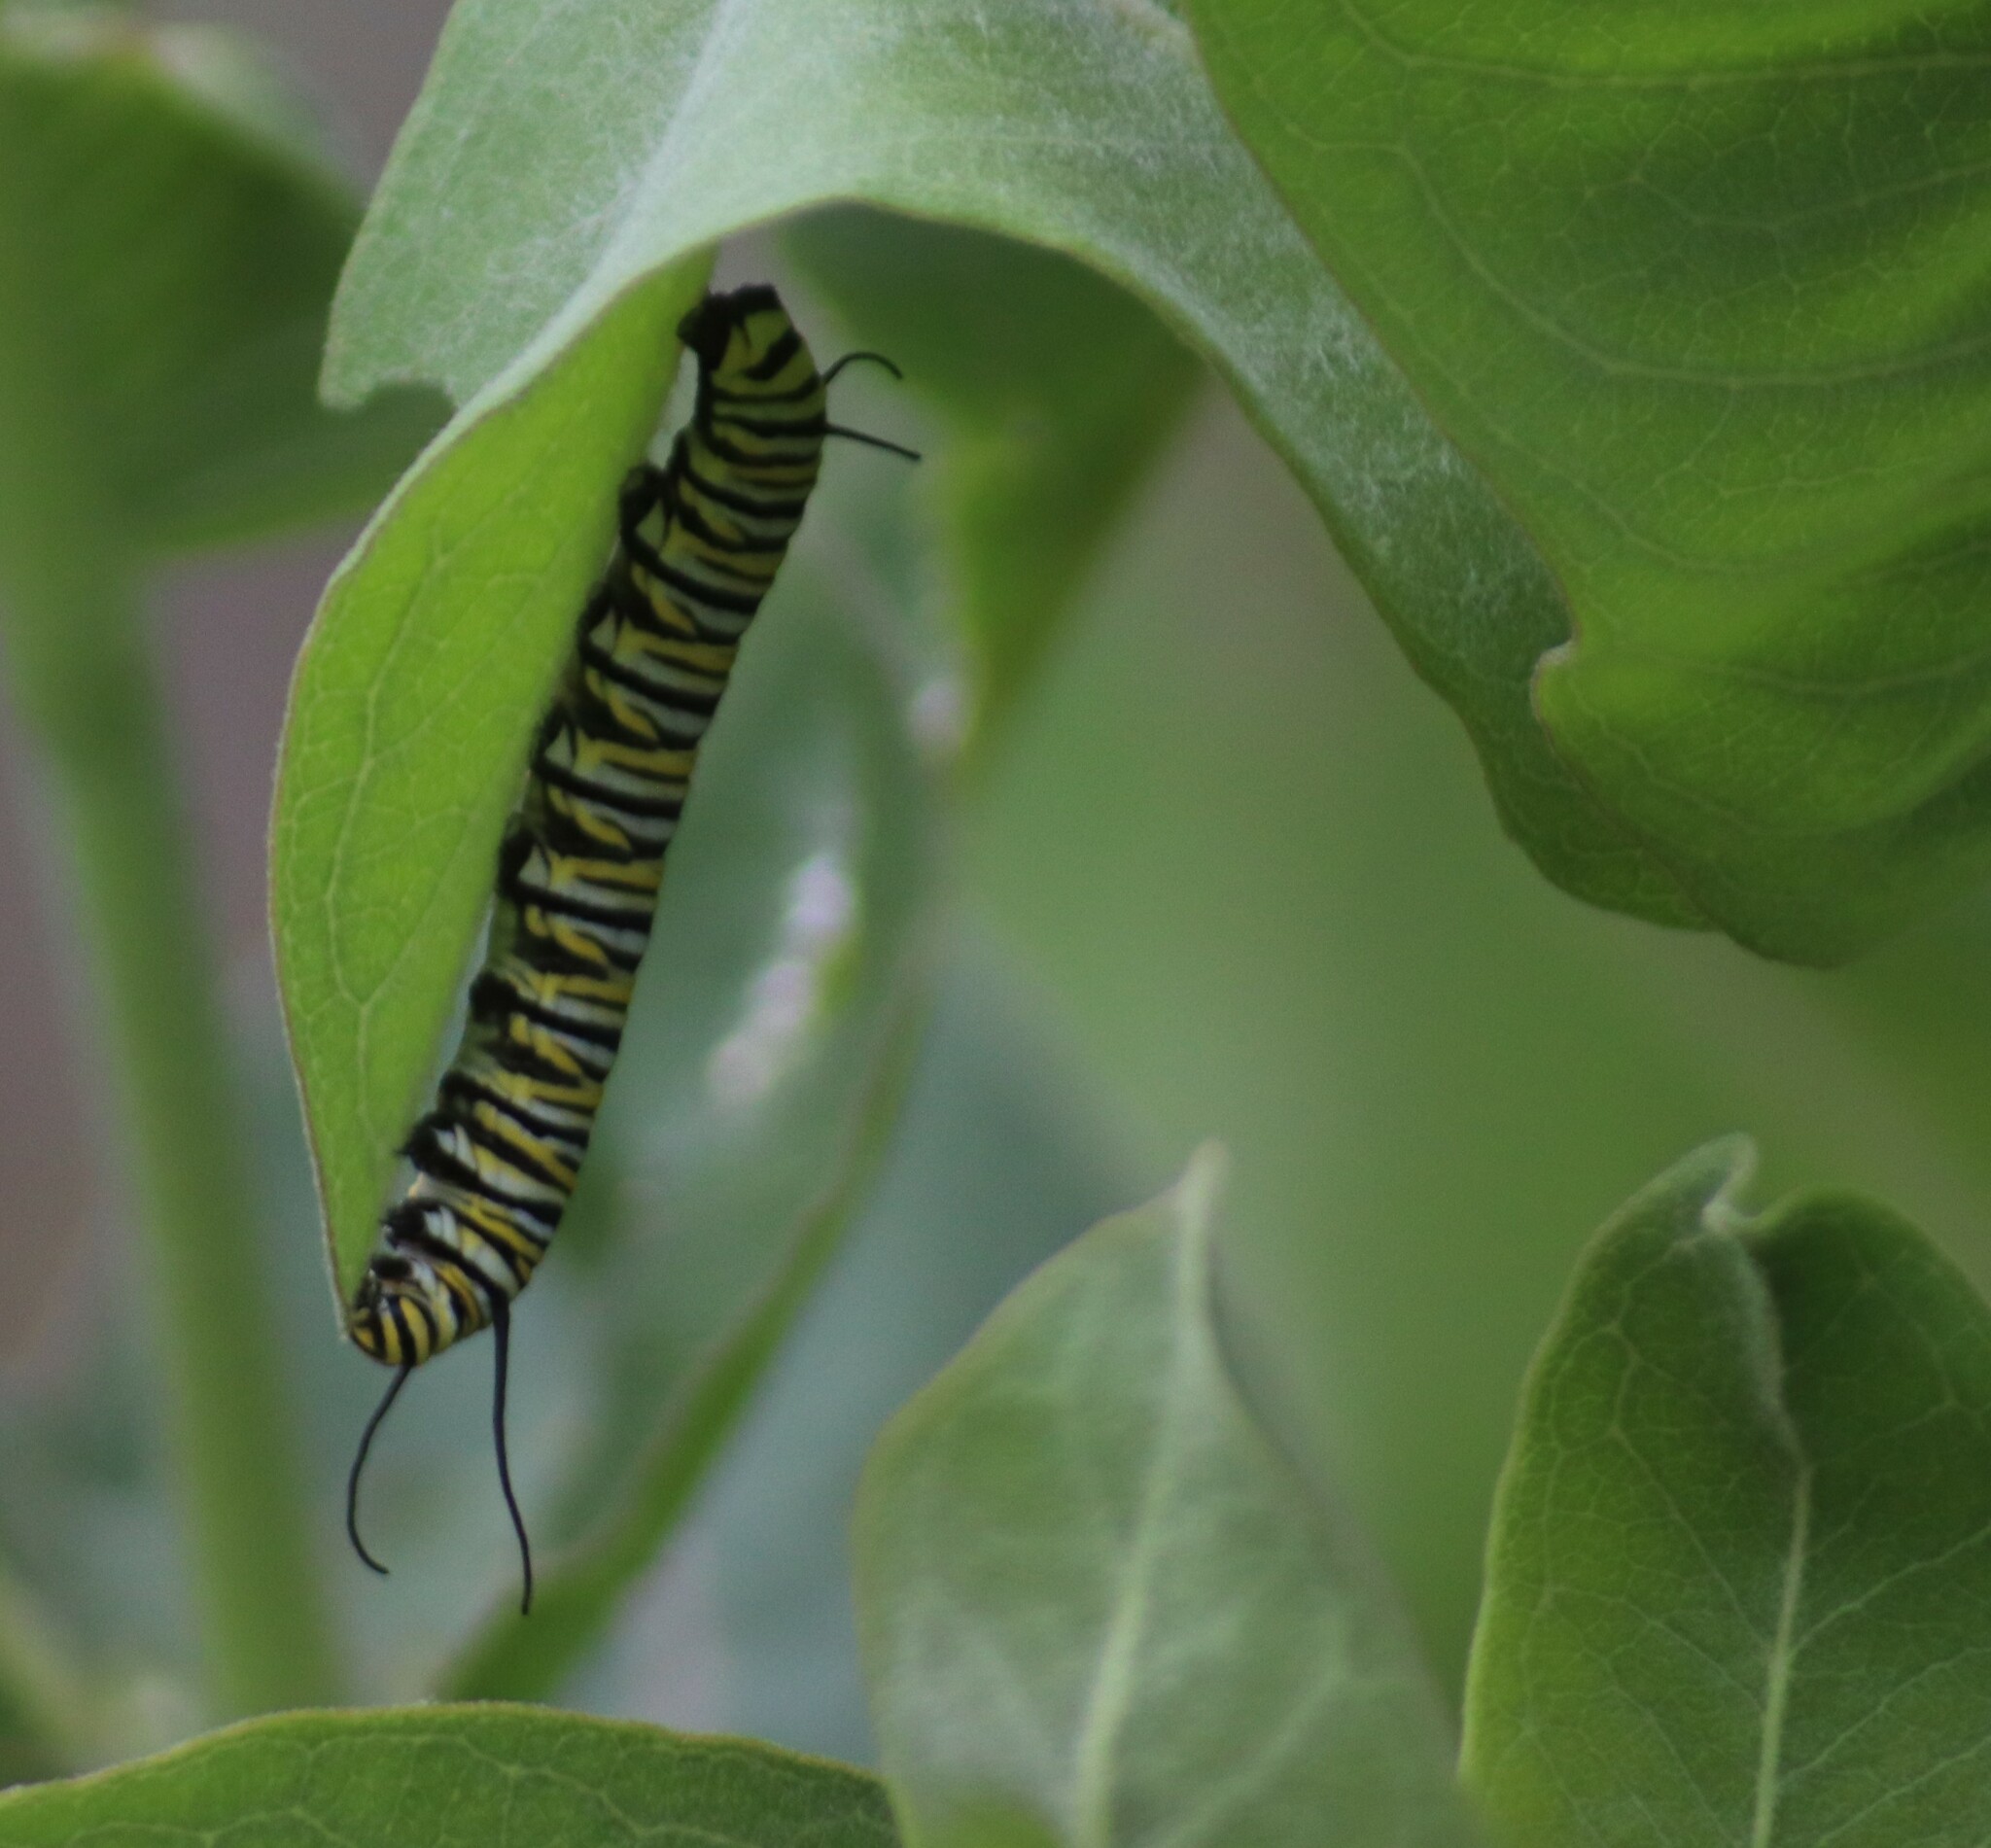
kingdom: Animalia
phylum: Arthropoda
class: Insecta
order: Lepidoptera
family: Nymphalidae
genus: Danaus
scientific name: Danaus plexippus
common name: Monarch
